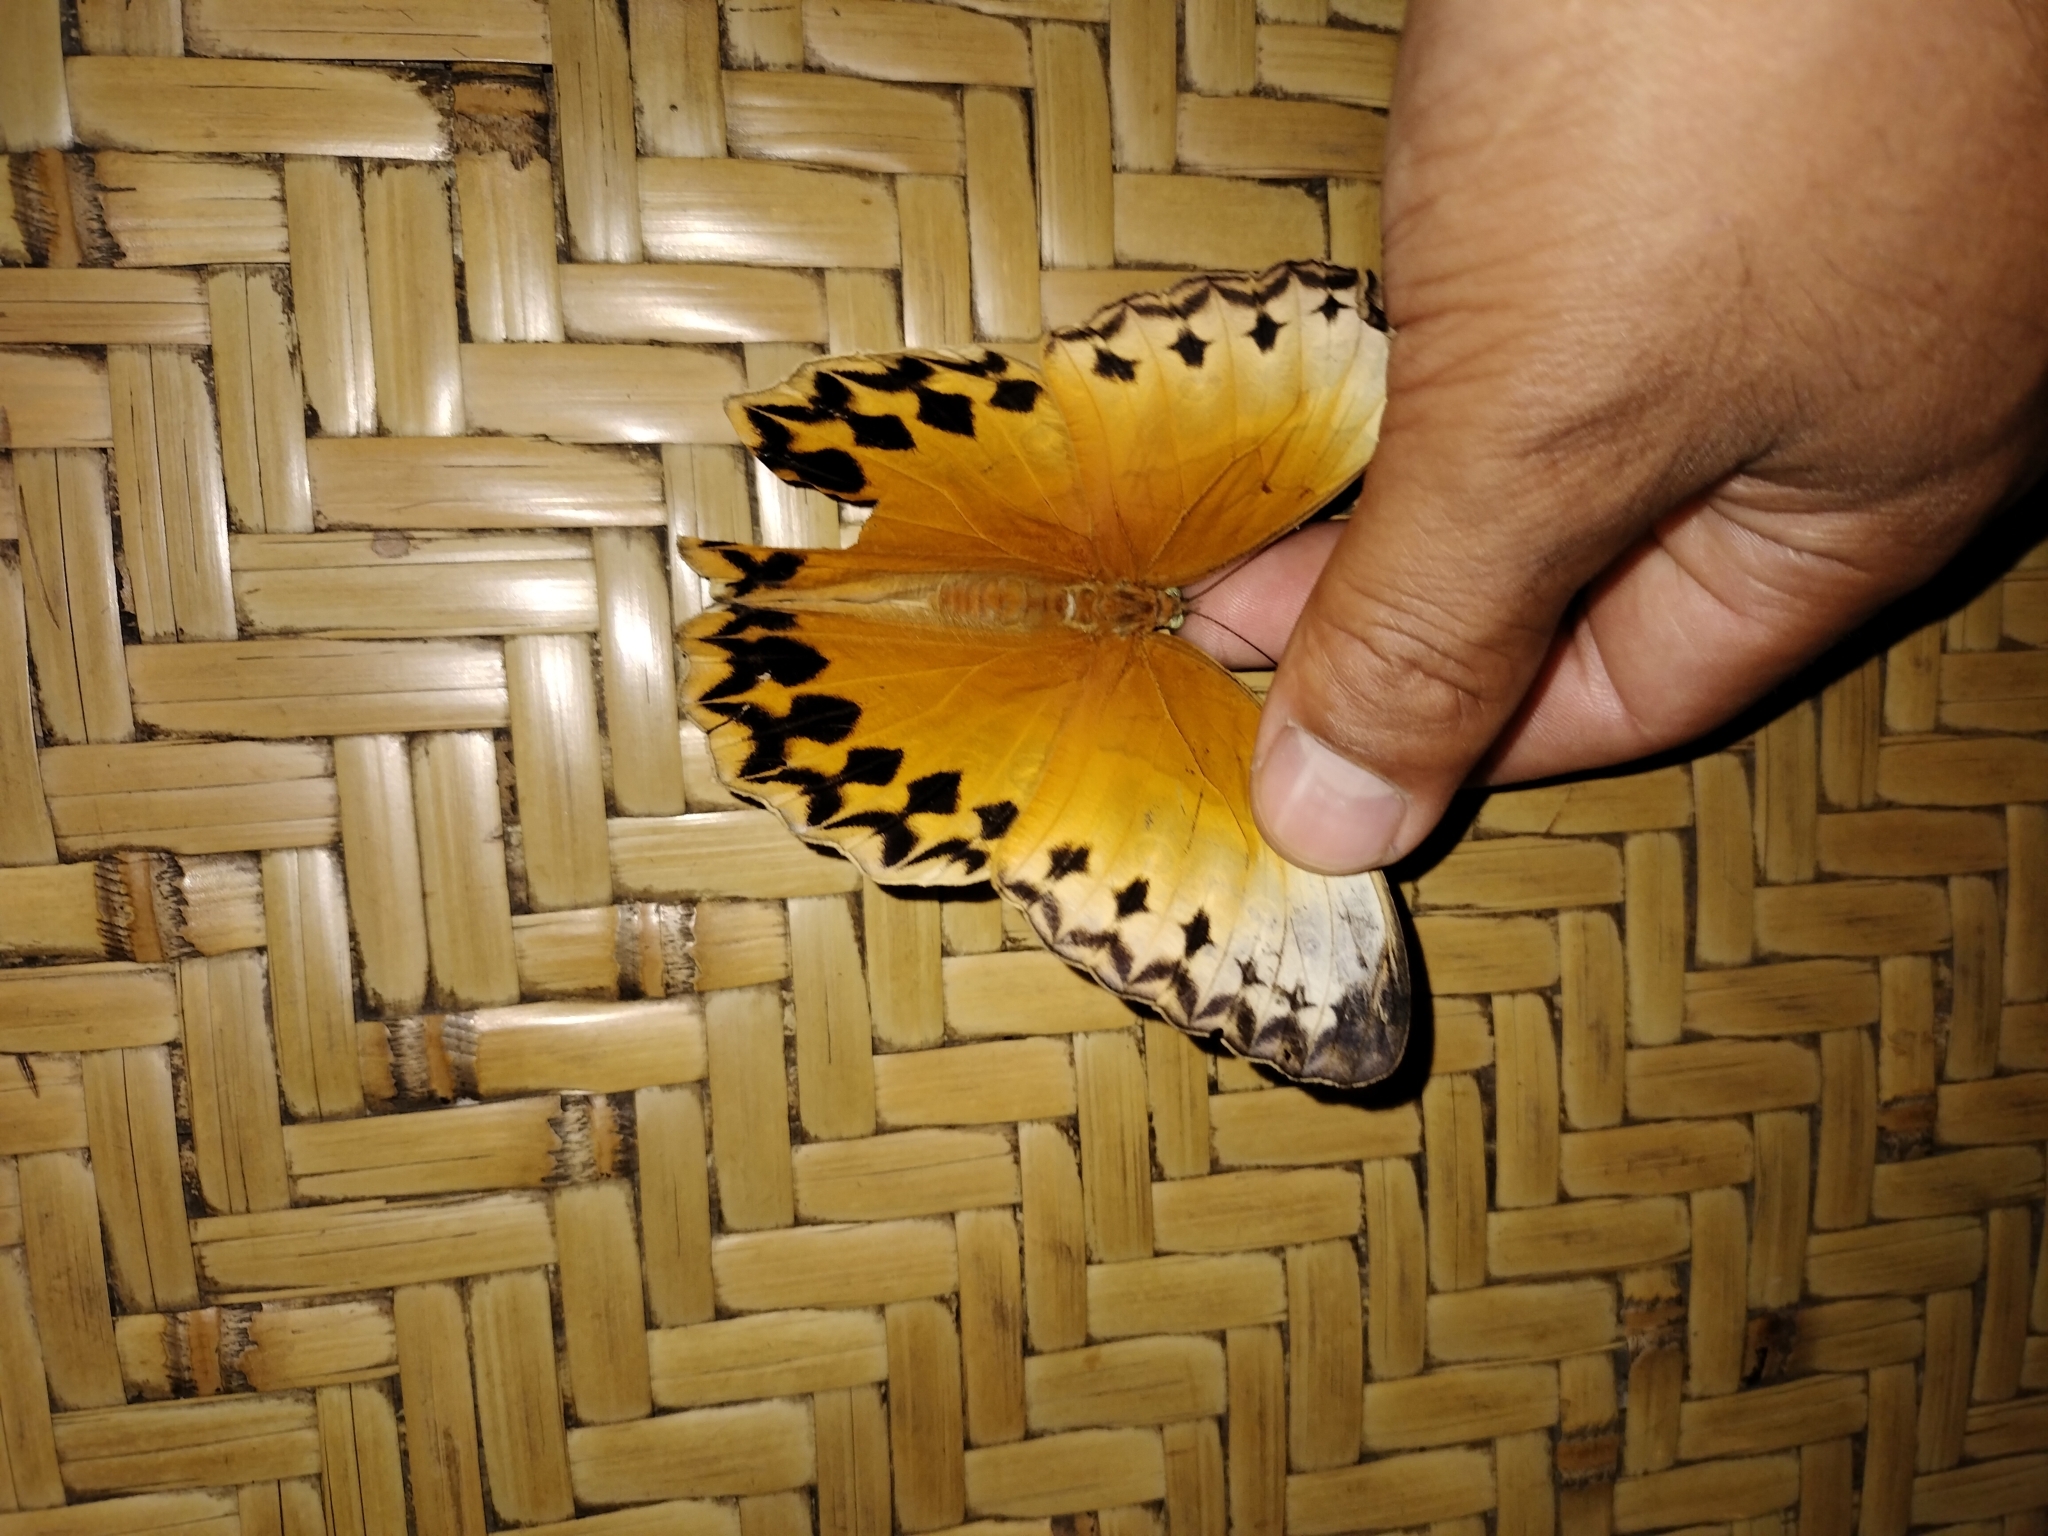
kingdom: Animalia
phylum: Arthropoda
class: Insecta
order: Lepidoptera
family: Nymphalidae
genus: Stichophthalma
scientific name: Stichophthalma sparta
